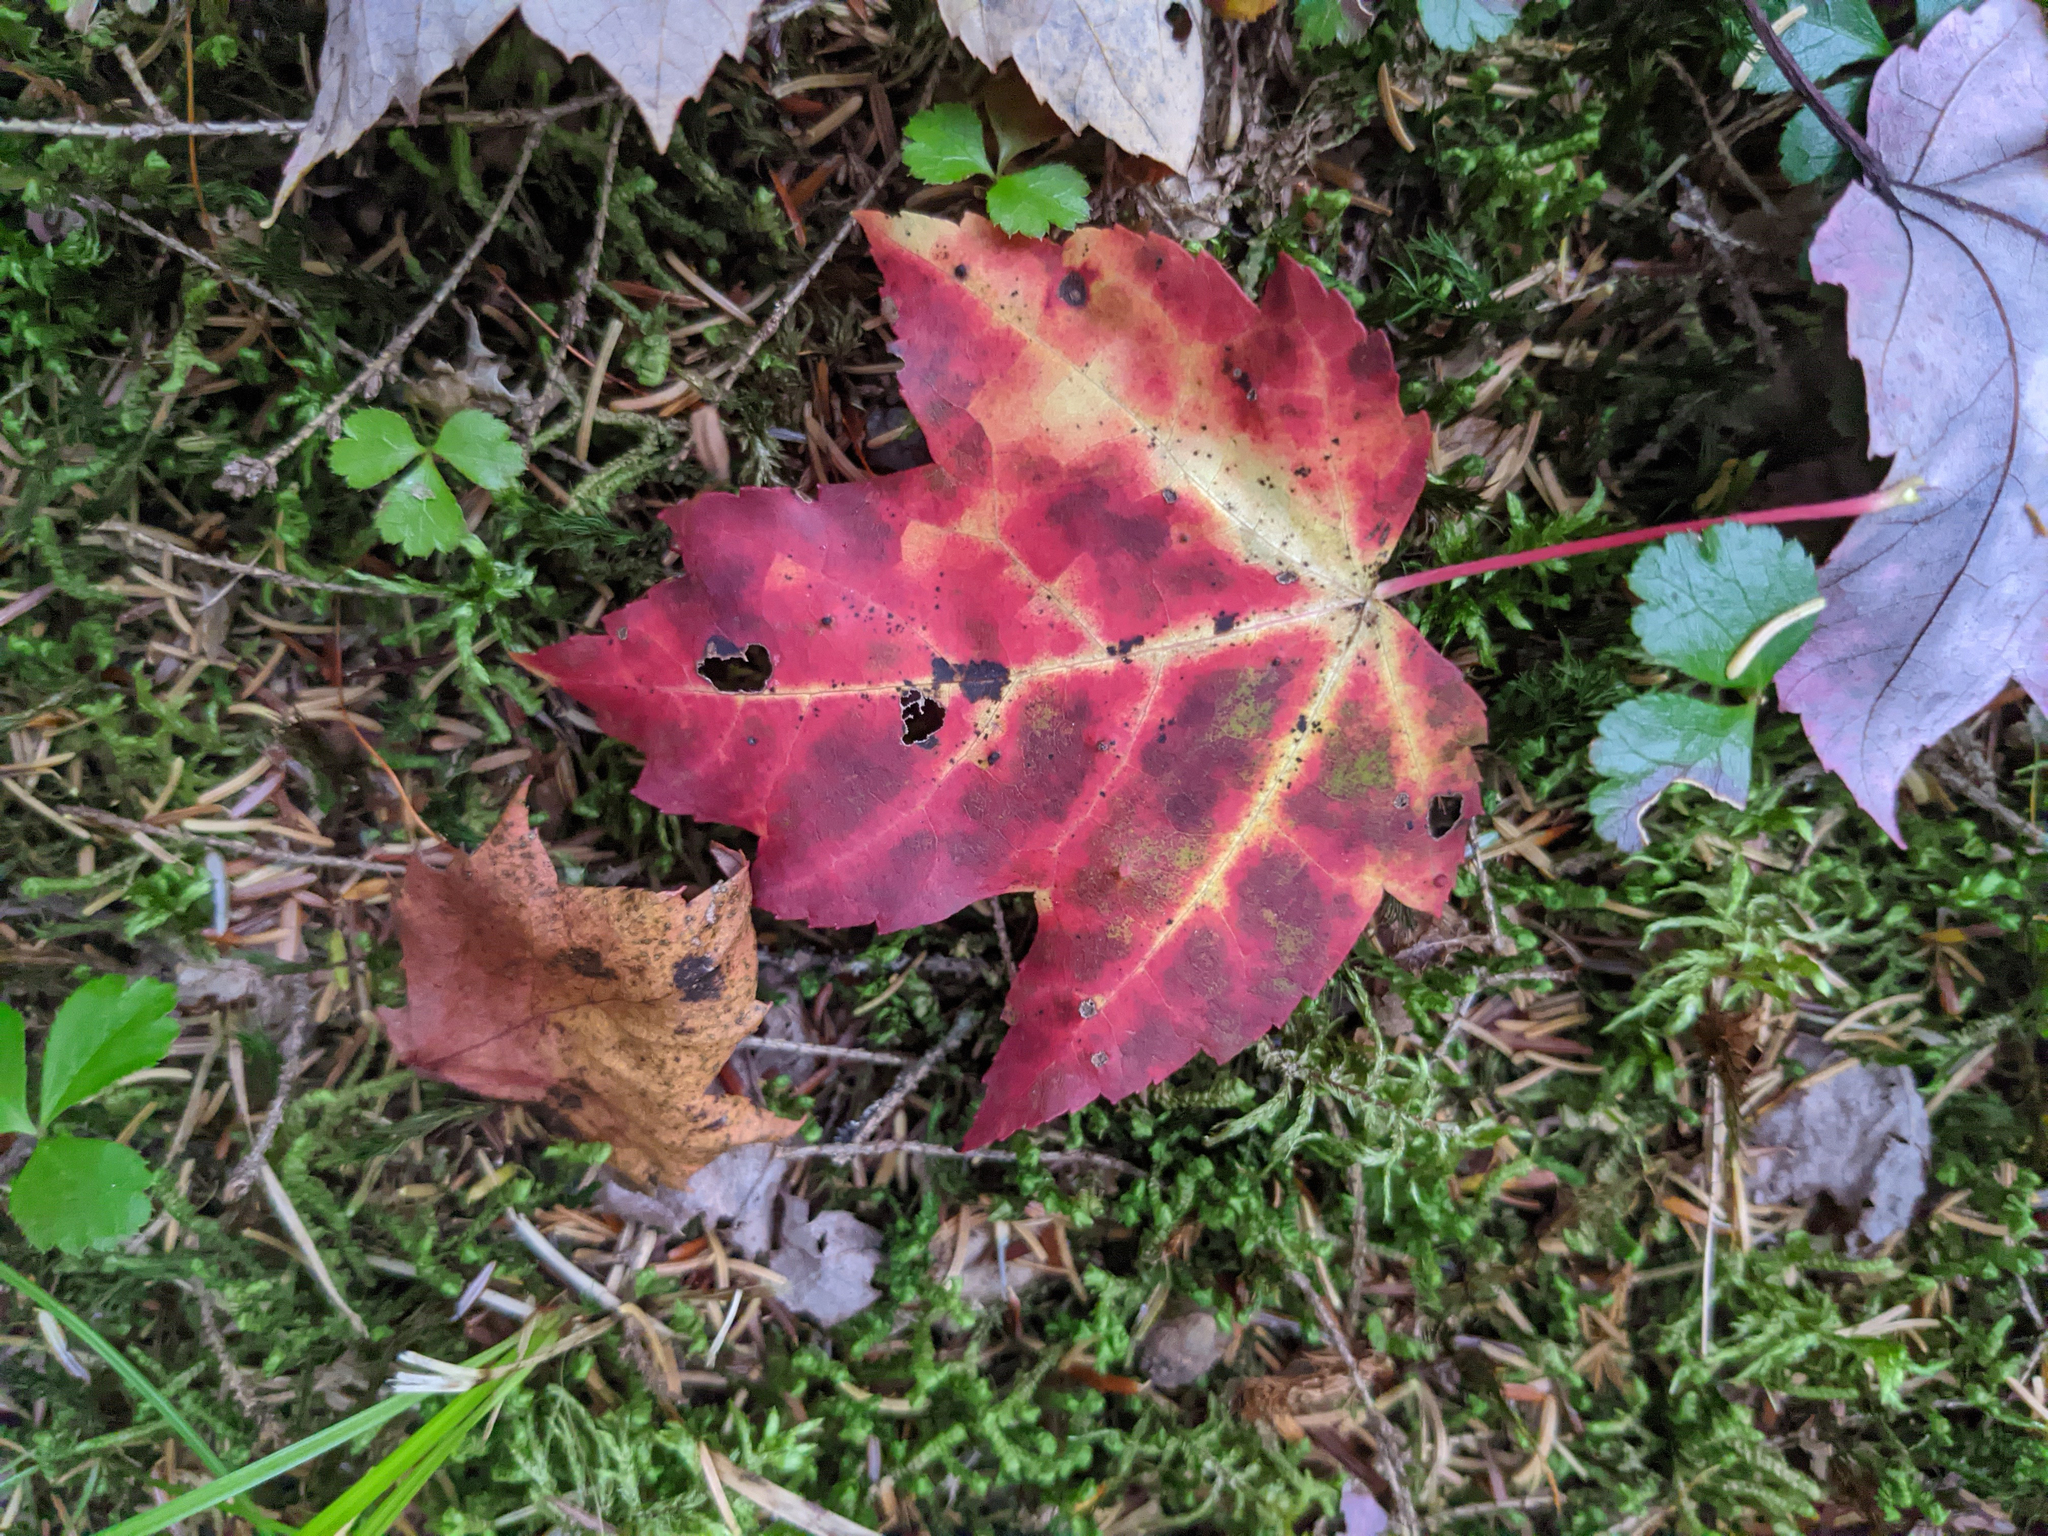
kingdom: Plantae
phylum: Tracheophyta
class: Magnoliopsida
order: Sapindales
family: Sapindaceae
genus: Acer
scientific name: Acer rubrum
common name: Red maple
